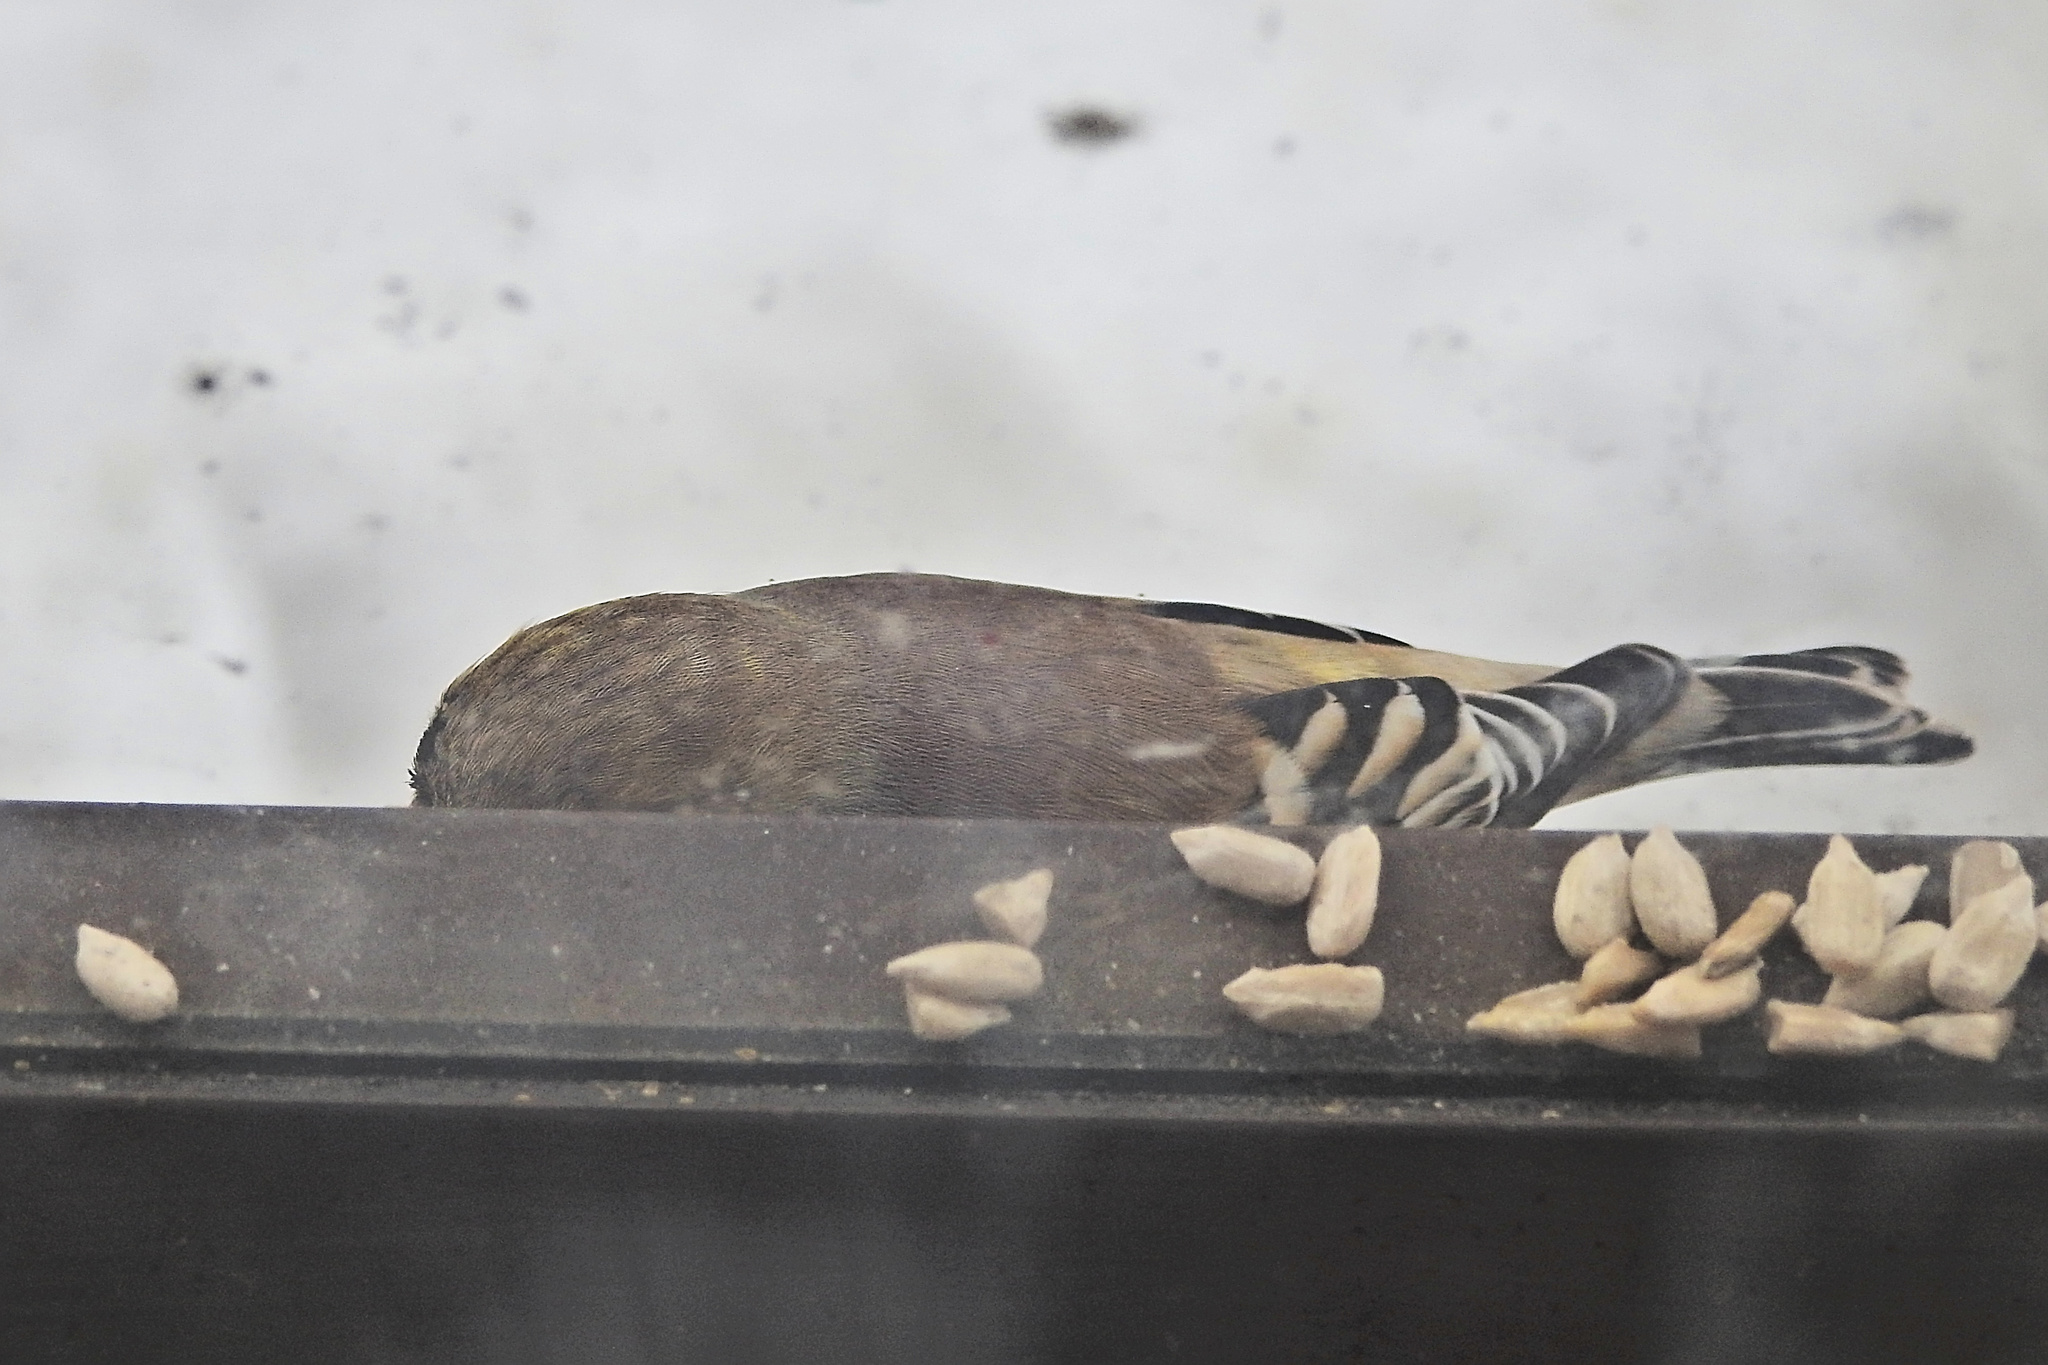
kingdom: Animalia
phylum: Chordata
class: Aves
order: Passeriformes
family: Fringillidae
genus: Spinus
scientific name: Spinus tristis
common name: American goldfinch
